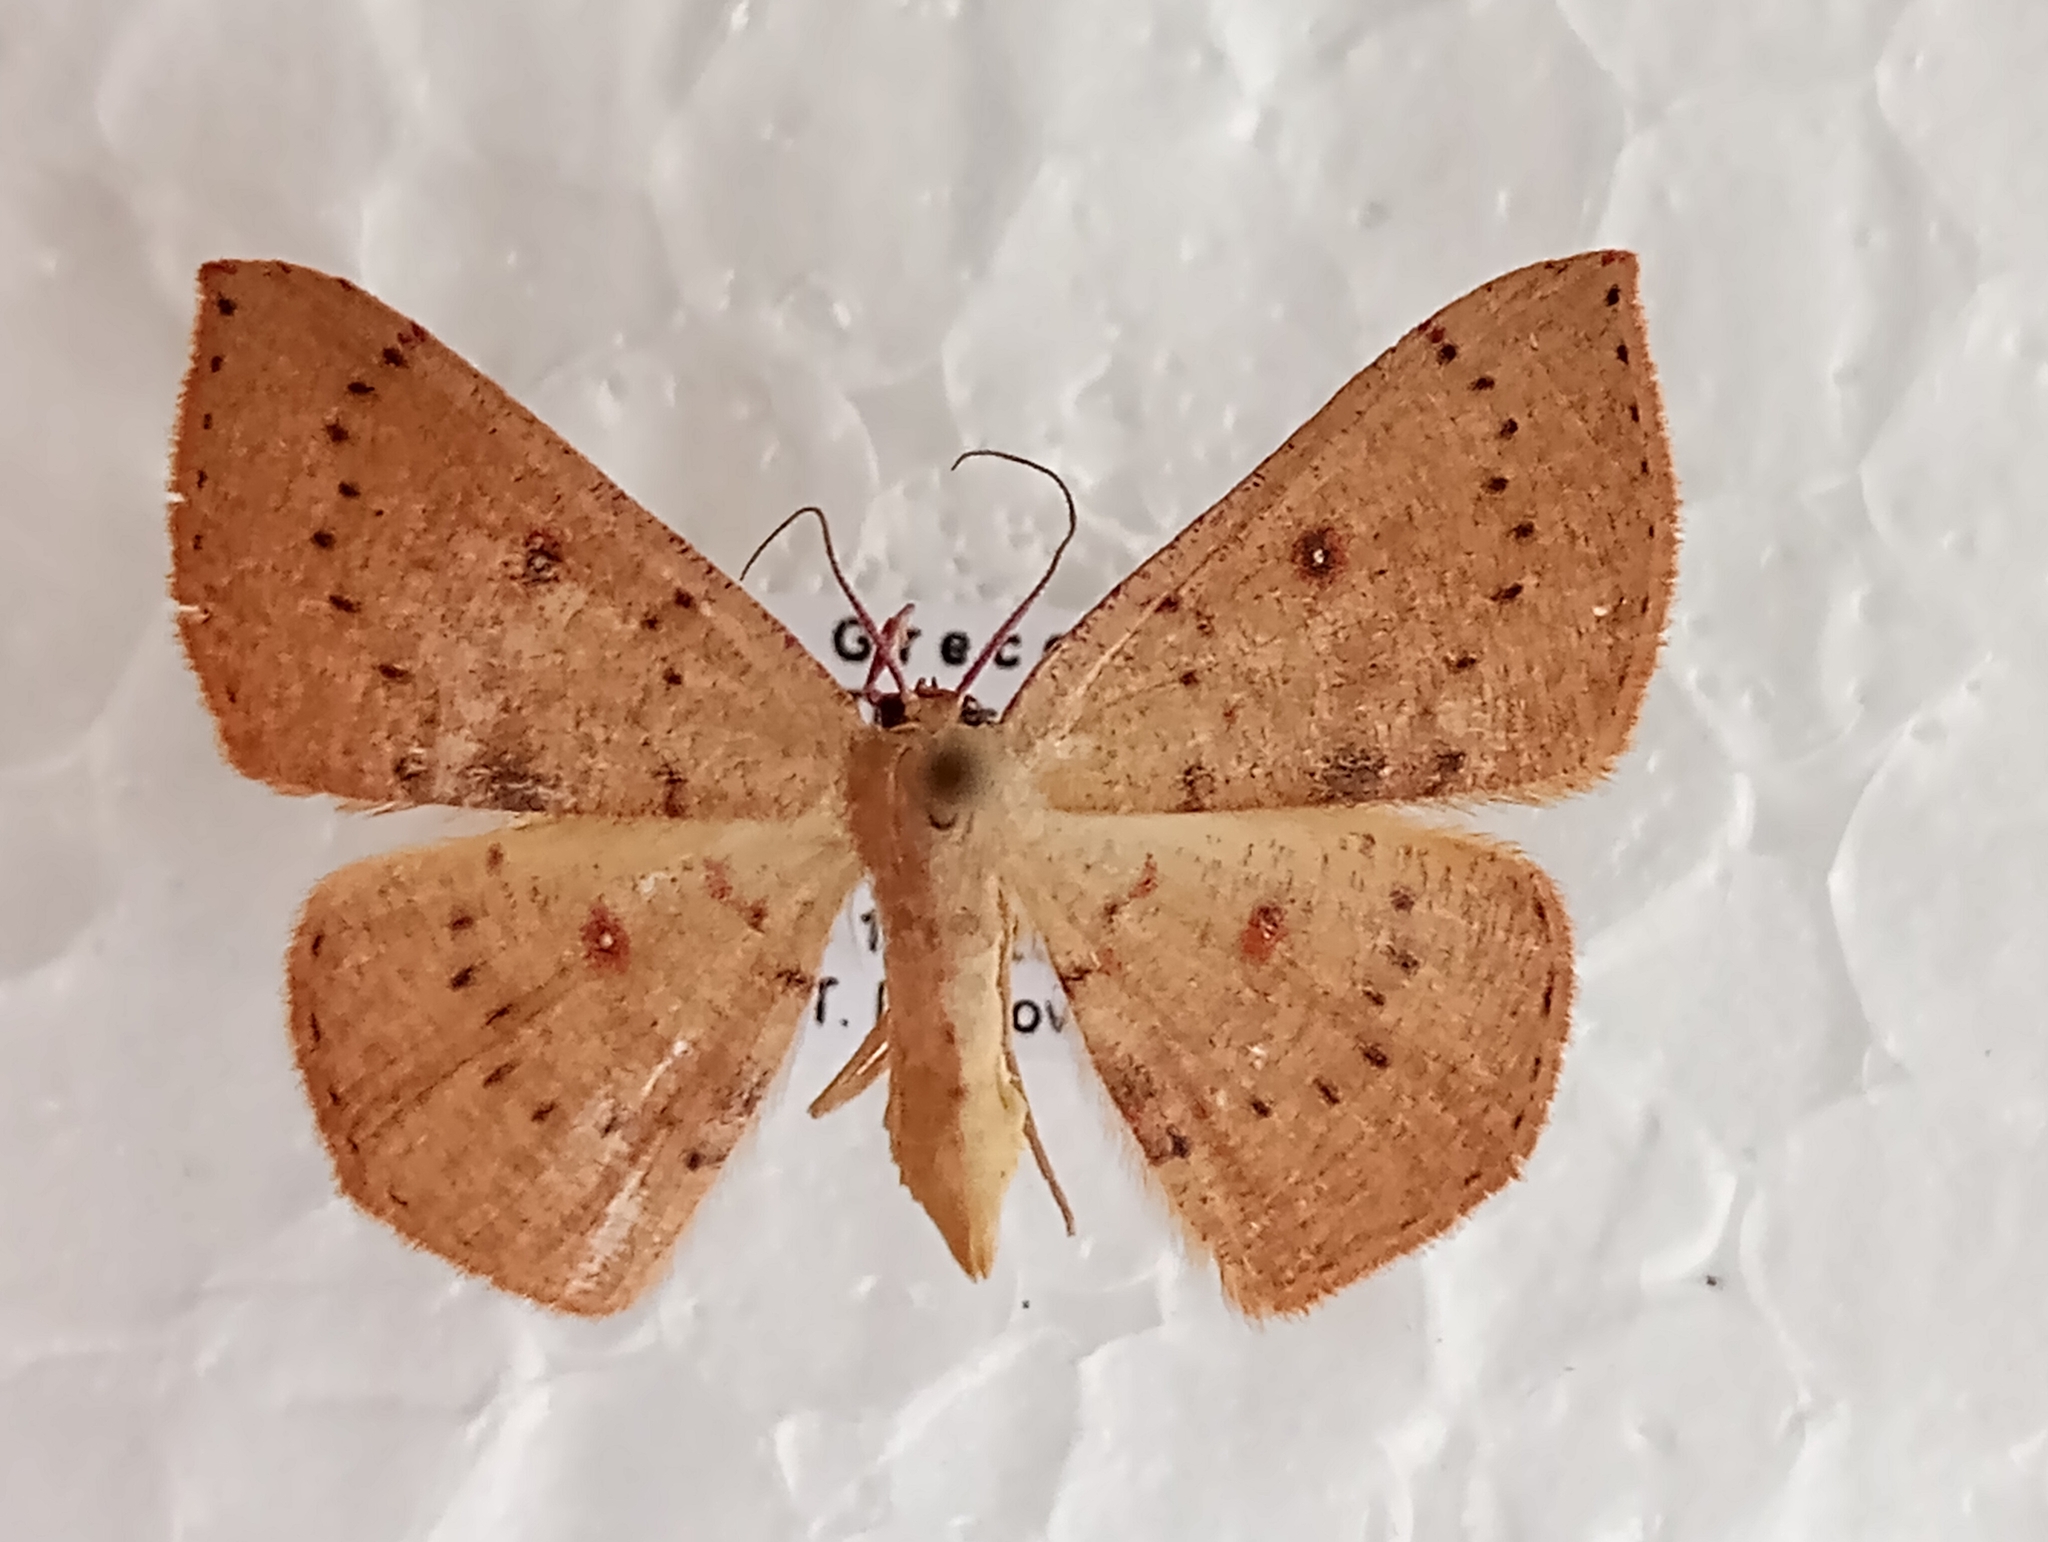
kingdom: Animalia
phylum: Arthropoda
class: Insecta
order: Lepidoptera
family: Geometridae
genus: Cyclophora
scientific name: Cyclophora puppillaria
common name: Blair's mocha
